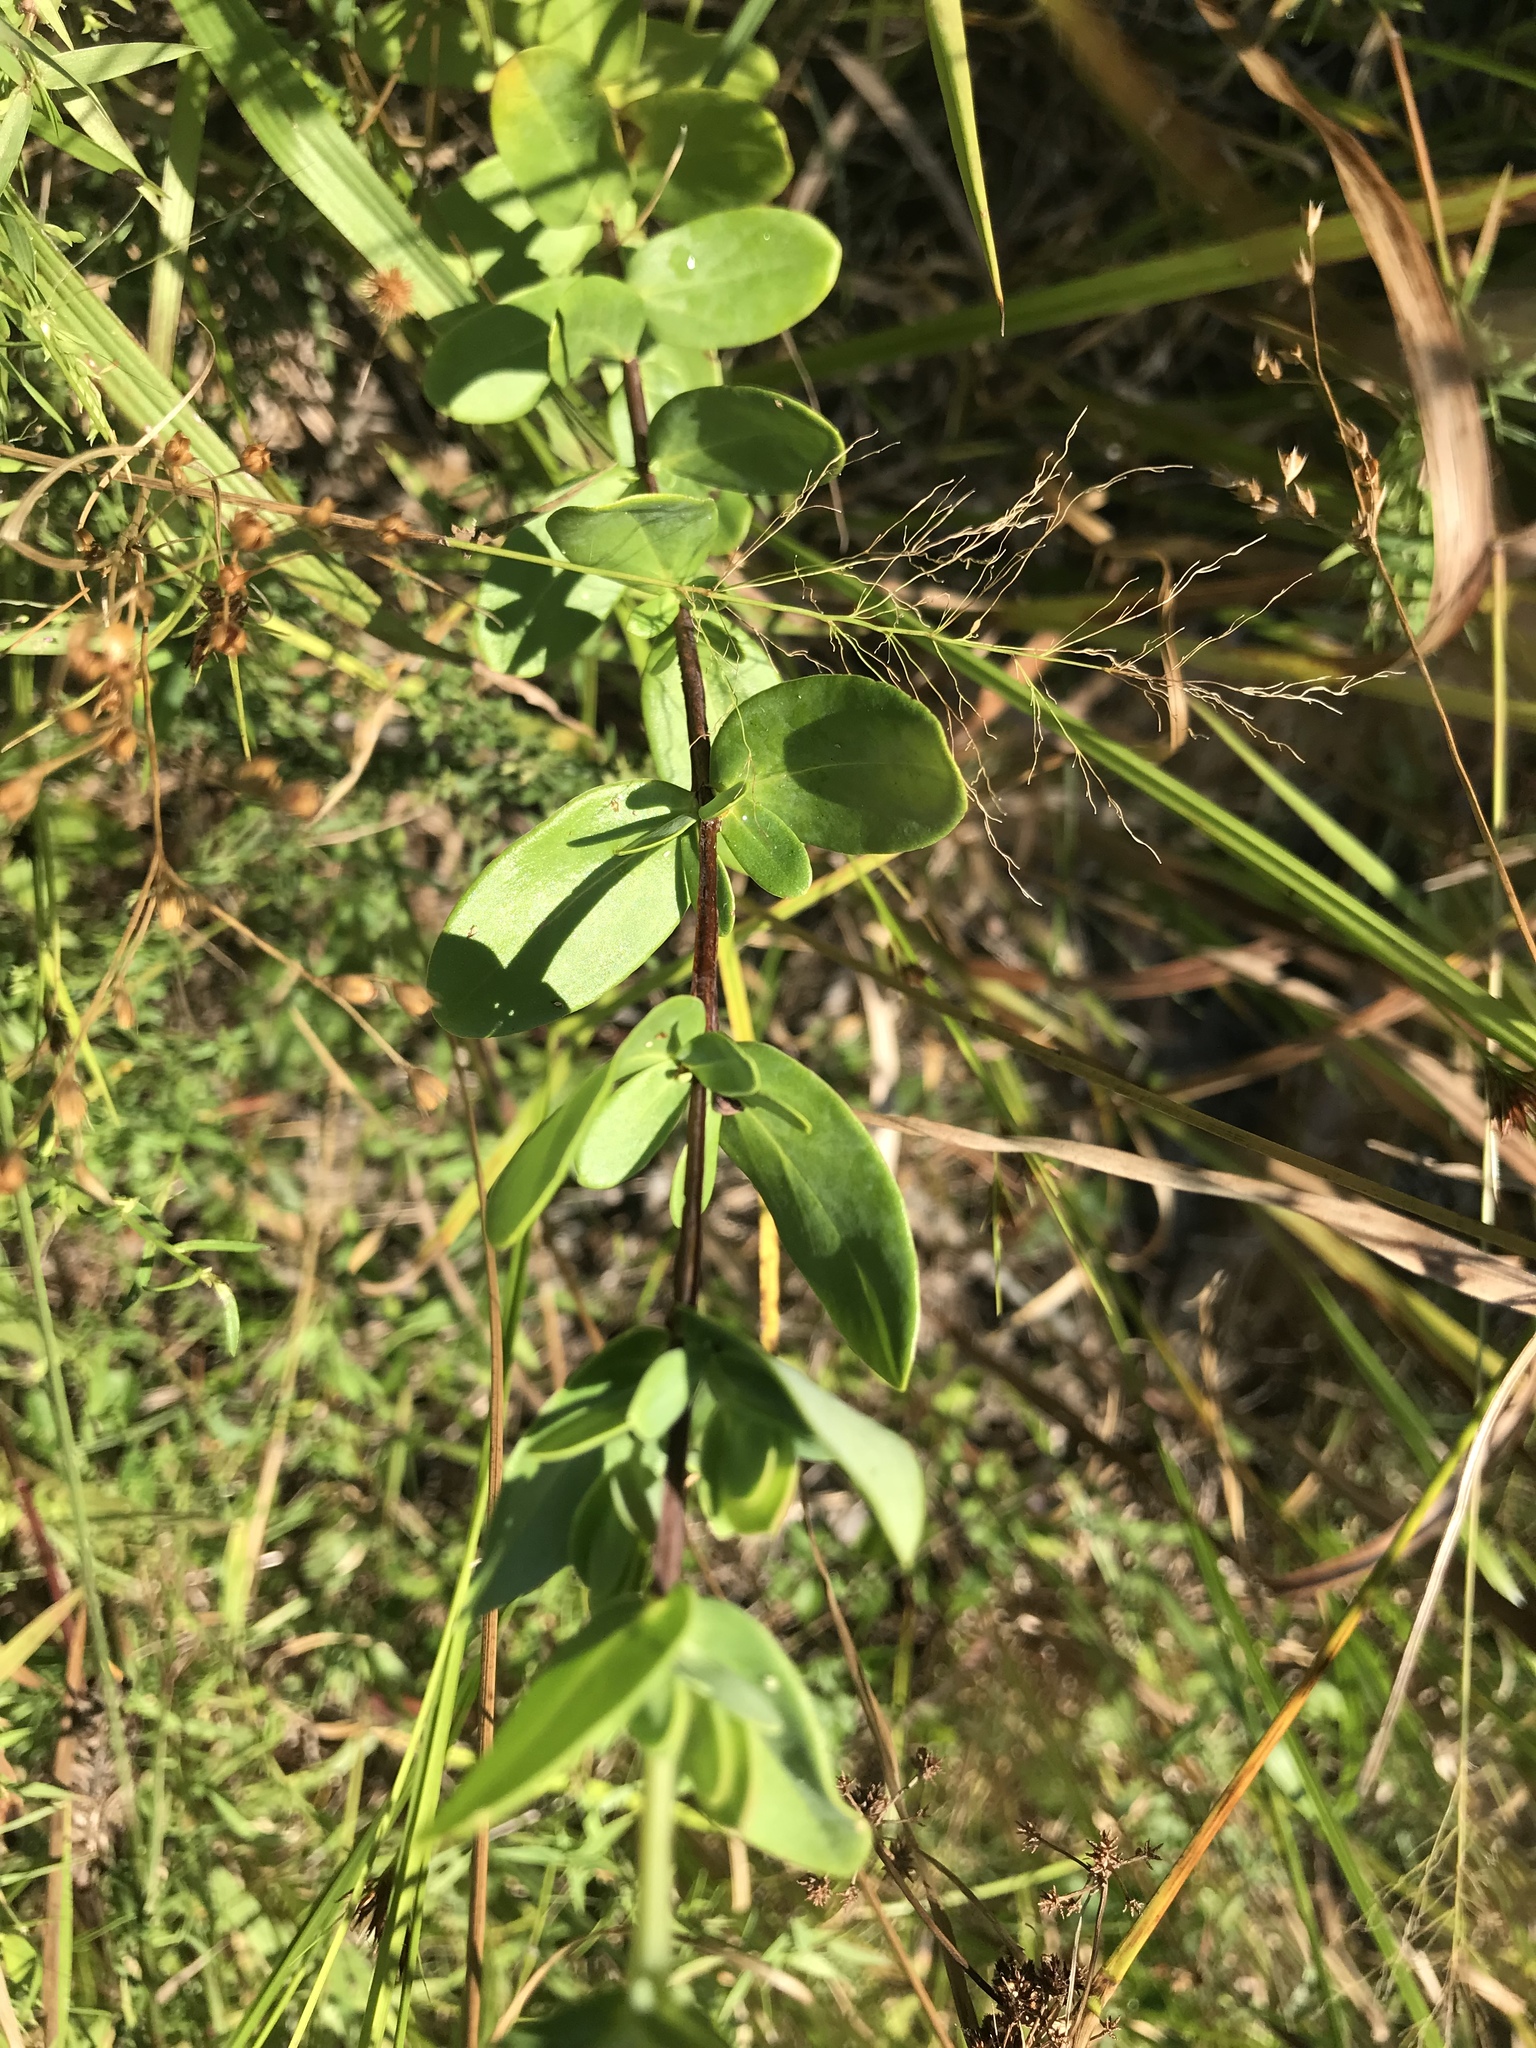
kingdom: Plantae
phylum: Tracheophyta
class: Magnoliopsida
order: Malpighiales
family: Hypericaceae
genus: Hypericum
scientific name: Hypericum crux-andreae
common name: St.-peter's-wort
